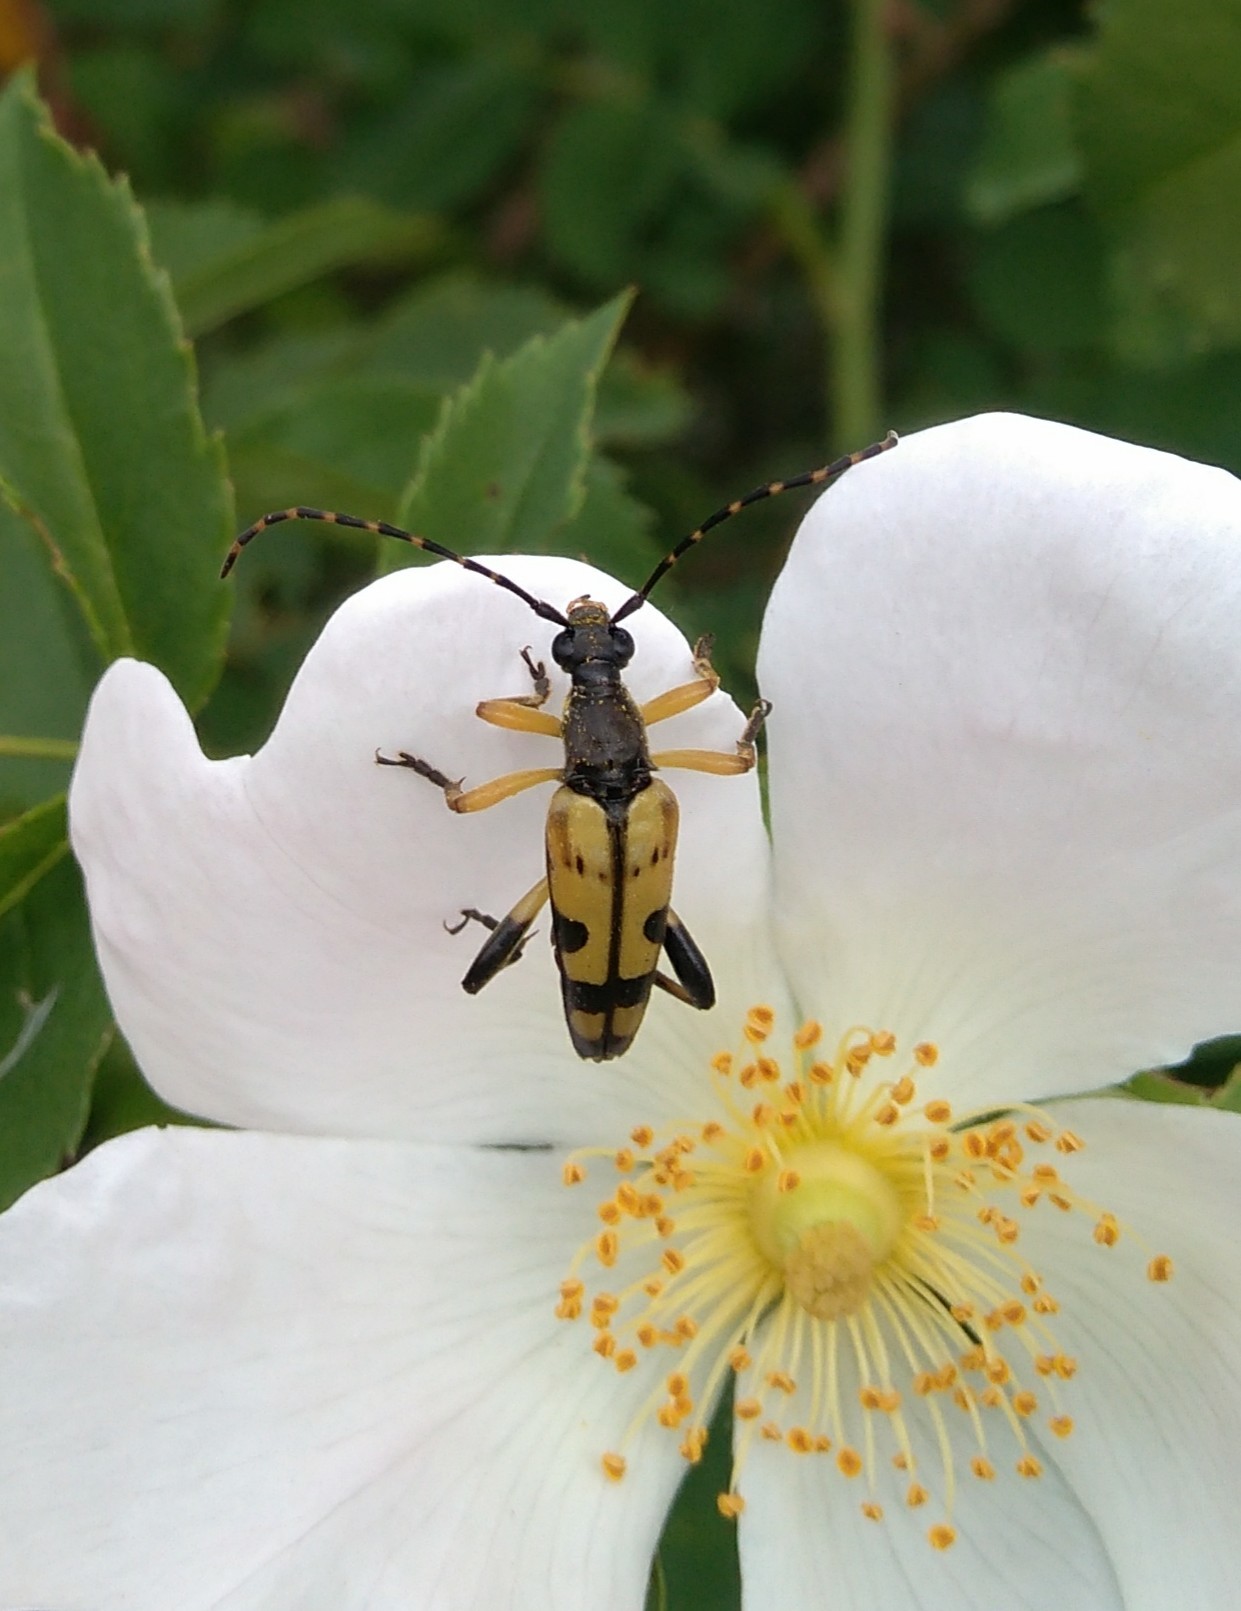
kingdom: Animalia
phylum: Arthropoda
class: Insecta
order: Coleoptera
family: Cerambycidae
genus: Rutpela
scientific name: Rutpela maculata
